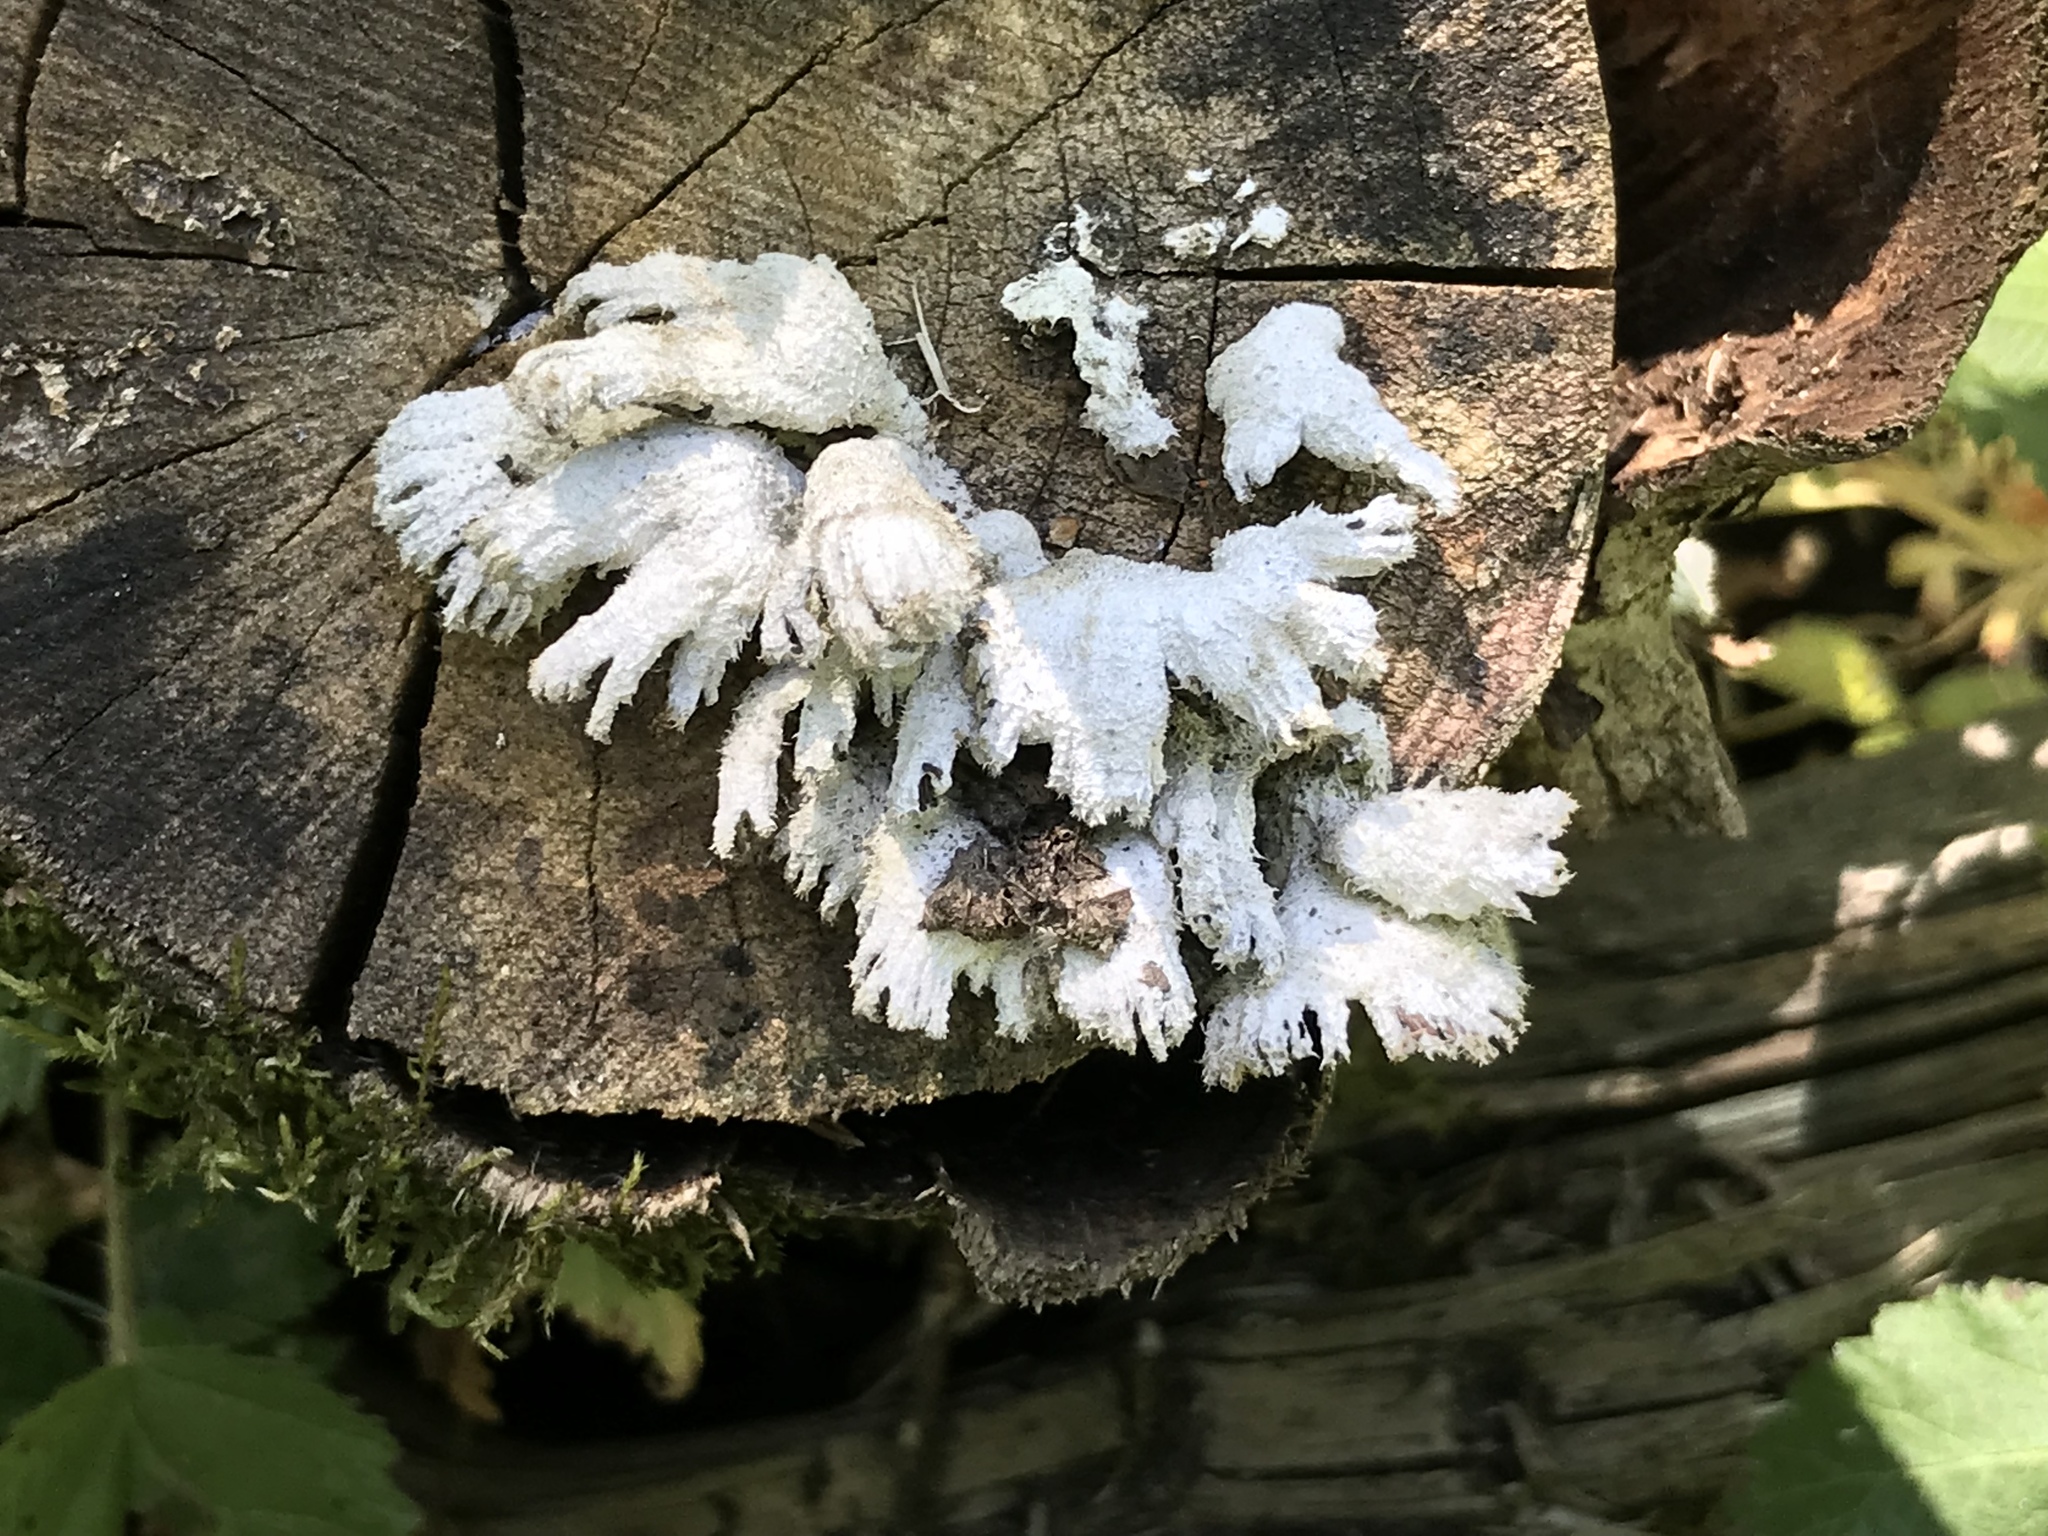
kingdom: Fungi
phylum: Basidiomycota
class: Agaricomycetes
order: Agaricales
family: Schizophyllaceae
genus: Schizophyllum
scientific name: Schizophyllum commune
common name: Common porecrust
